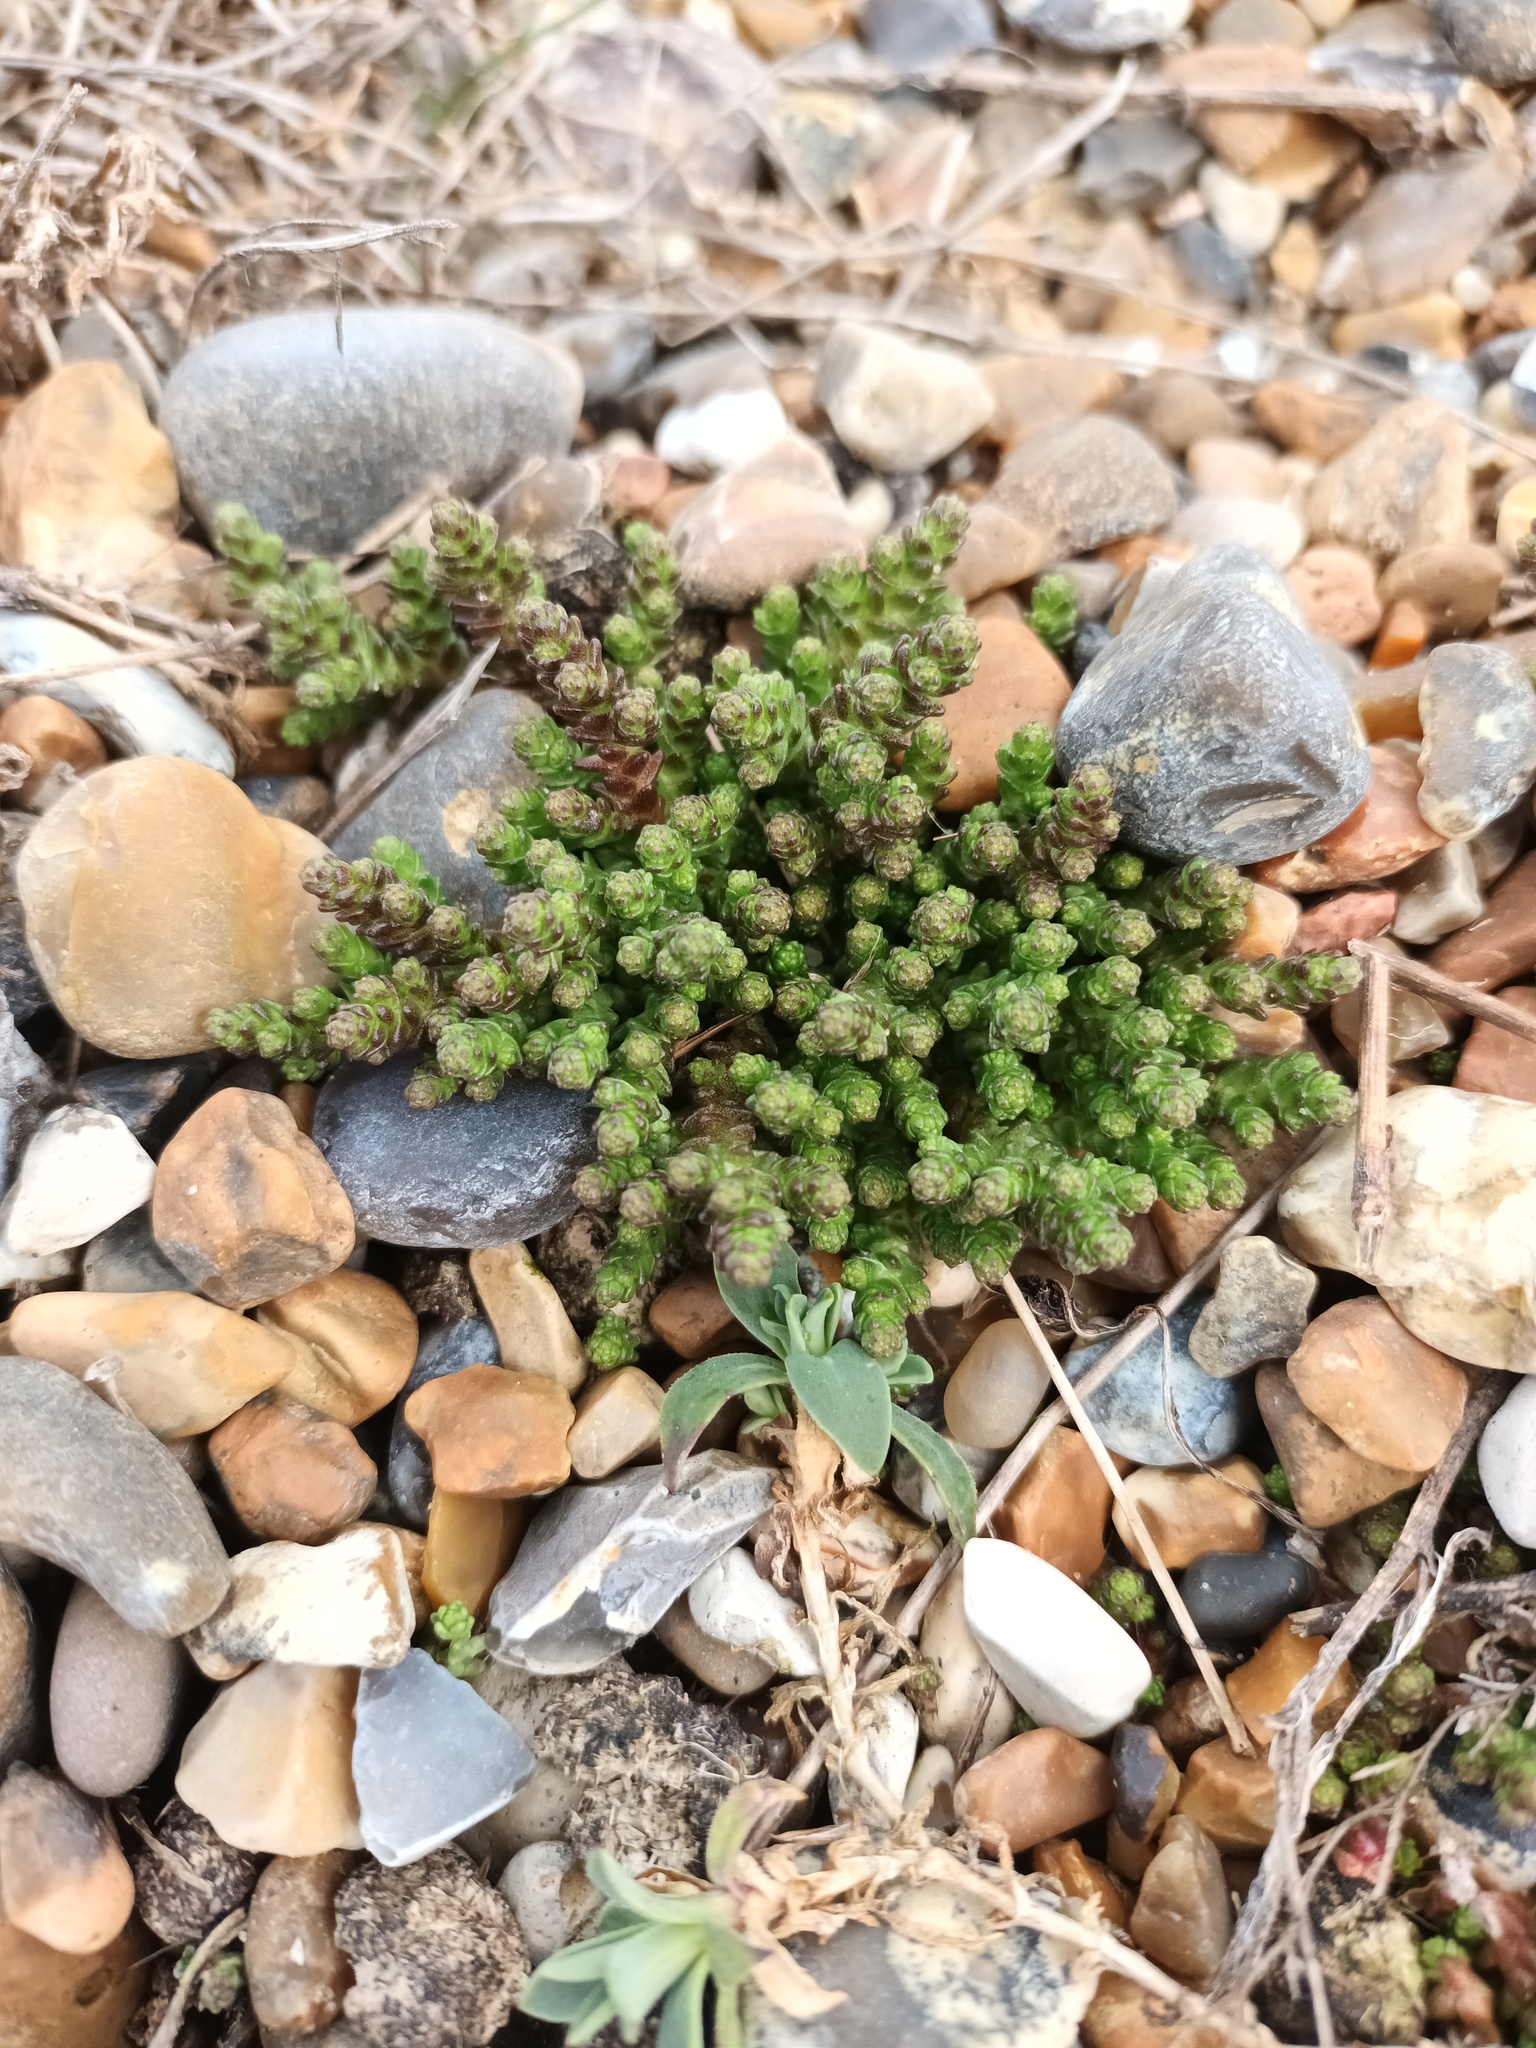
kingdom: Plantae
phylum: Tracheophyta
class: Magnoliopsida
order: Saxifragales
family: Crassulaceae
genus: Sedum
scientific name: Sedum acre
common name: Biting stonecrop
